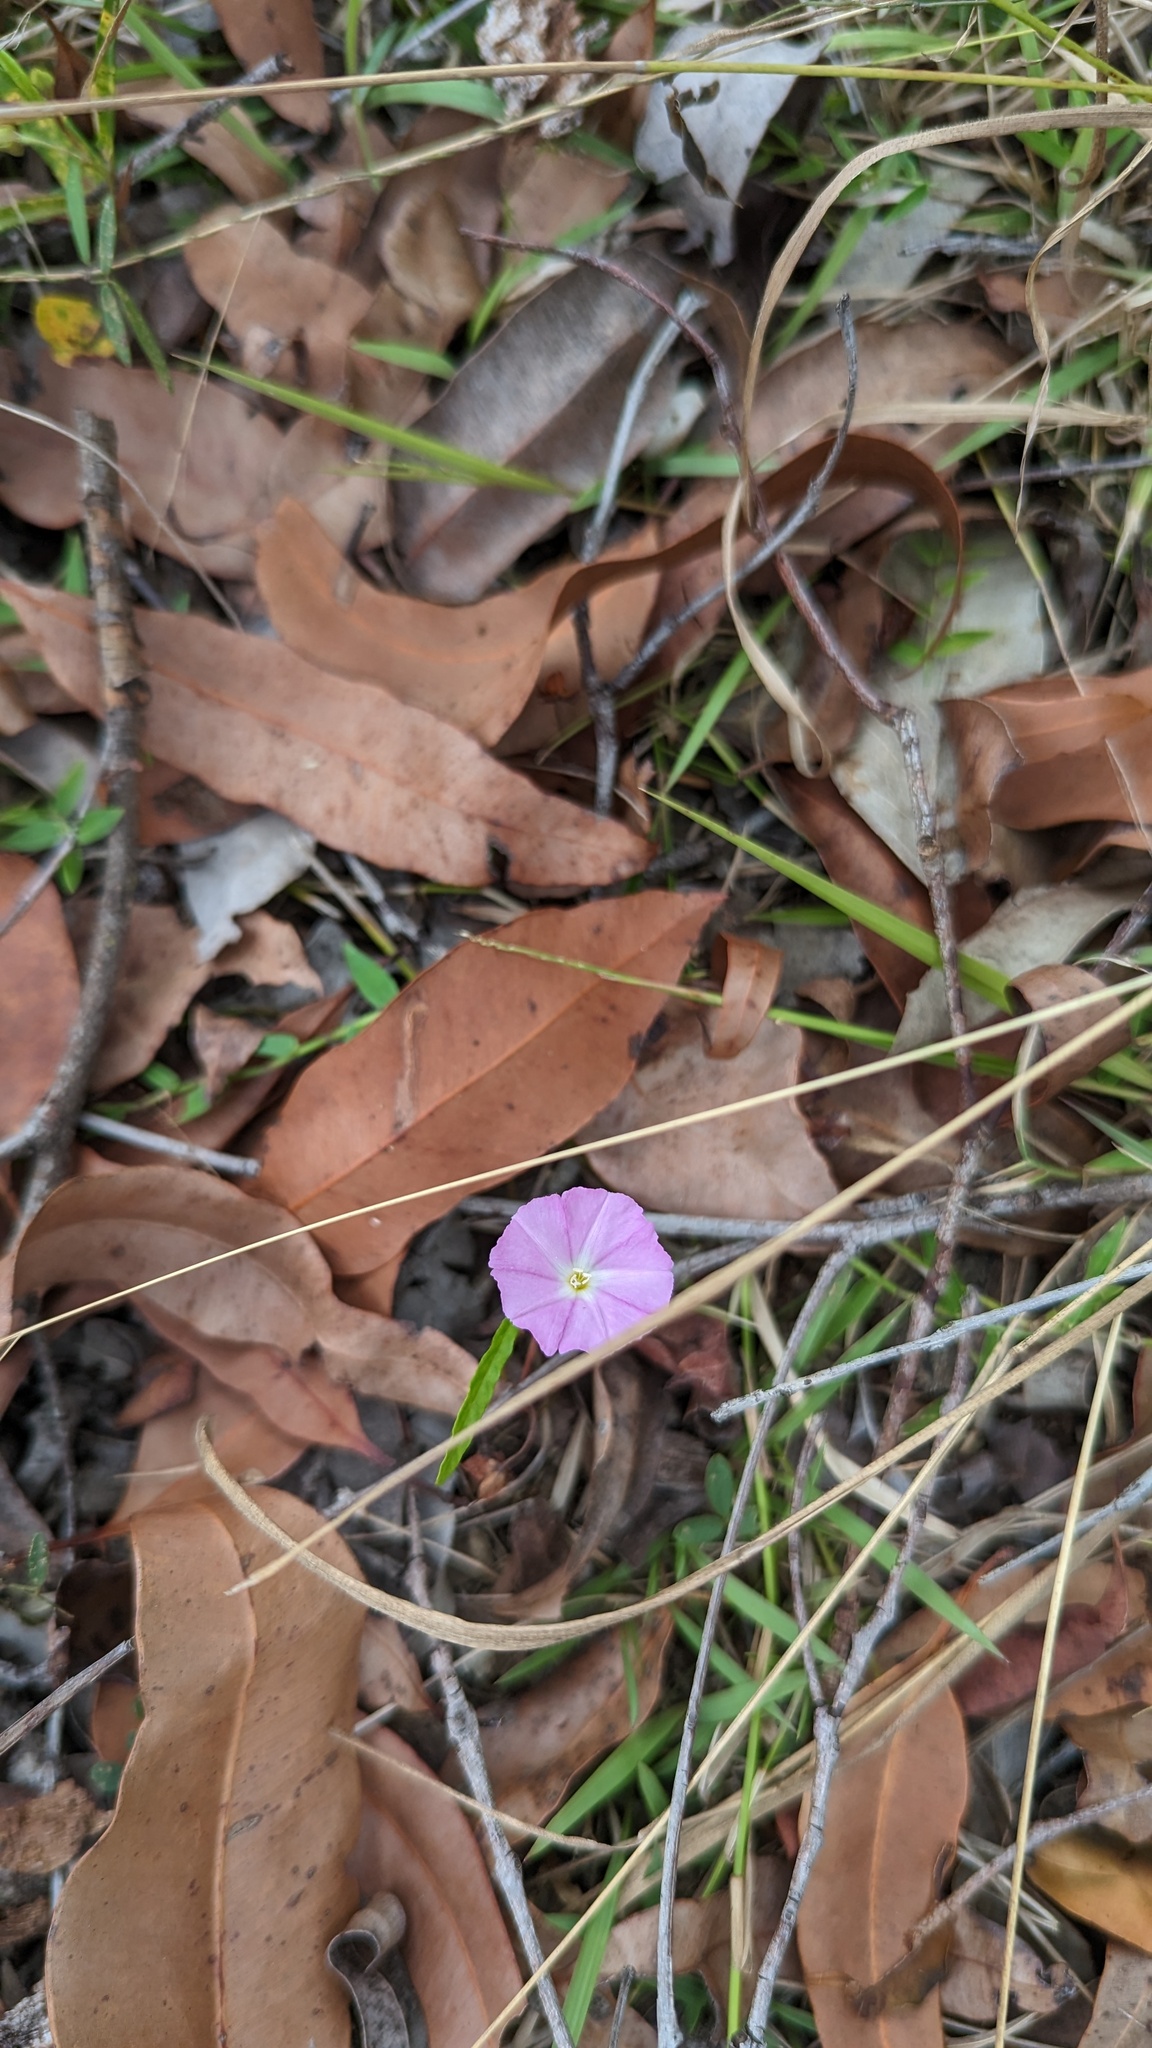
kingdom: Plantae
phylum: Tracheophyta
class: Magnoliopsida
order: Solanales
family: Convolvulaceae
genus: Polymeria
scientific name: Polymeria calycina
